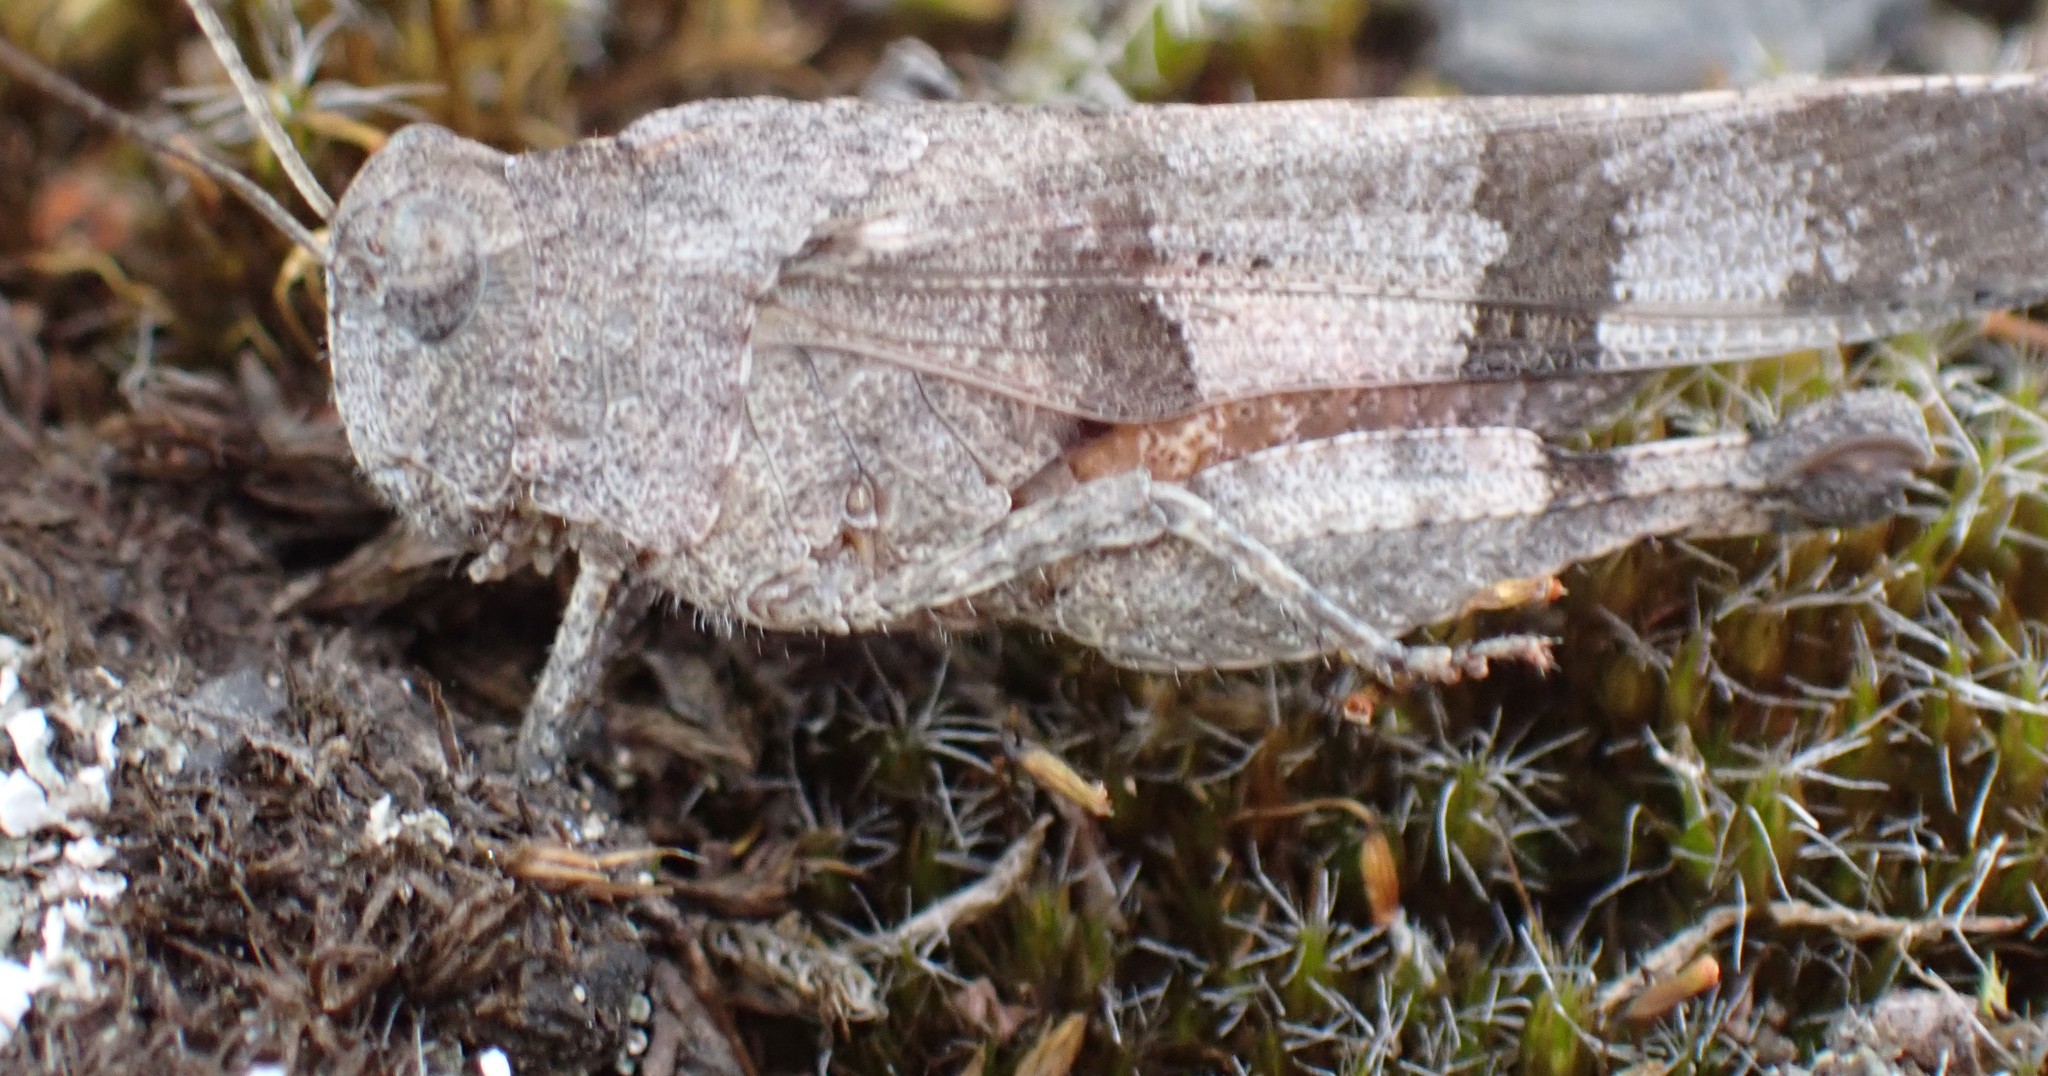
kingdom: Animalia
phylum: Arthropoda
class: Insecta
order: Orthoptera
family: Acrididae
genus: Oedipoda
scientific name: Oedipoda caerulescens
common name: Blue-winged grasshopper
